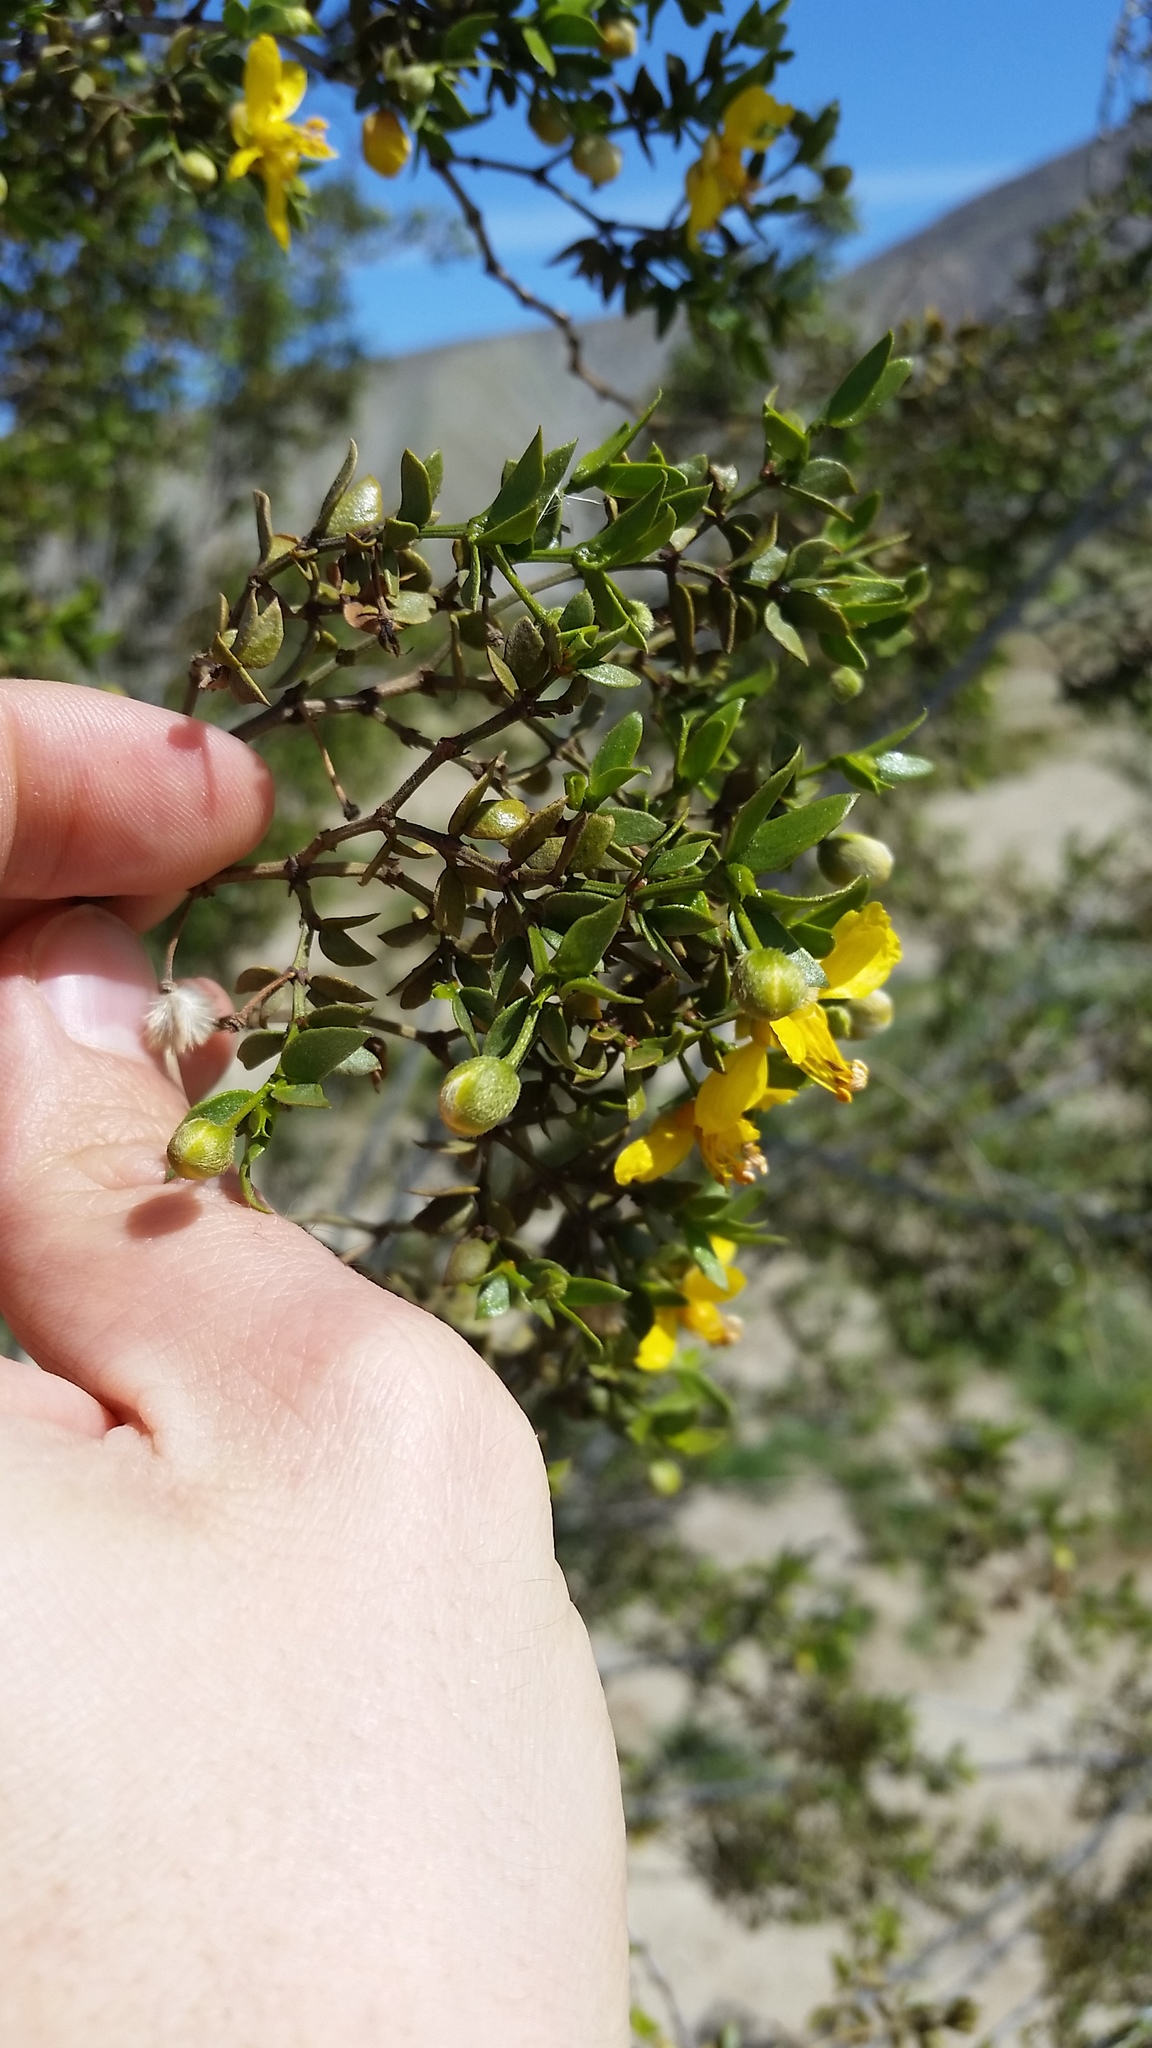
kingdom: Plantae
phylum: Tracheophyta
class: Magnoliopsida
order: Zygophyllales
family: Zygophyllaceae
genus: Larrea
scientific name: Larrea tridentata
